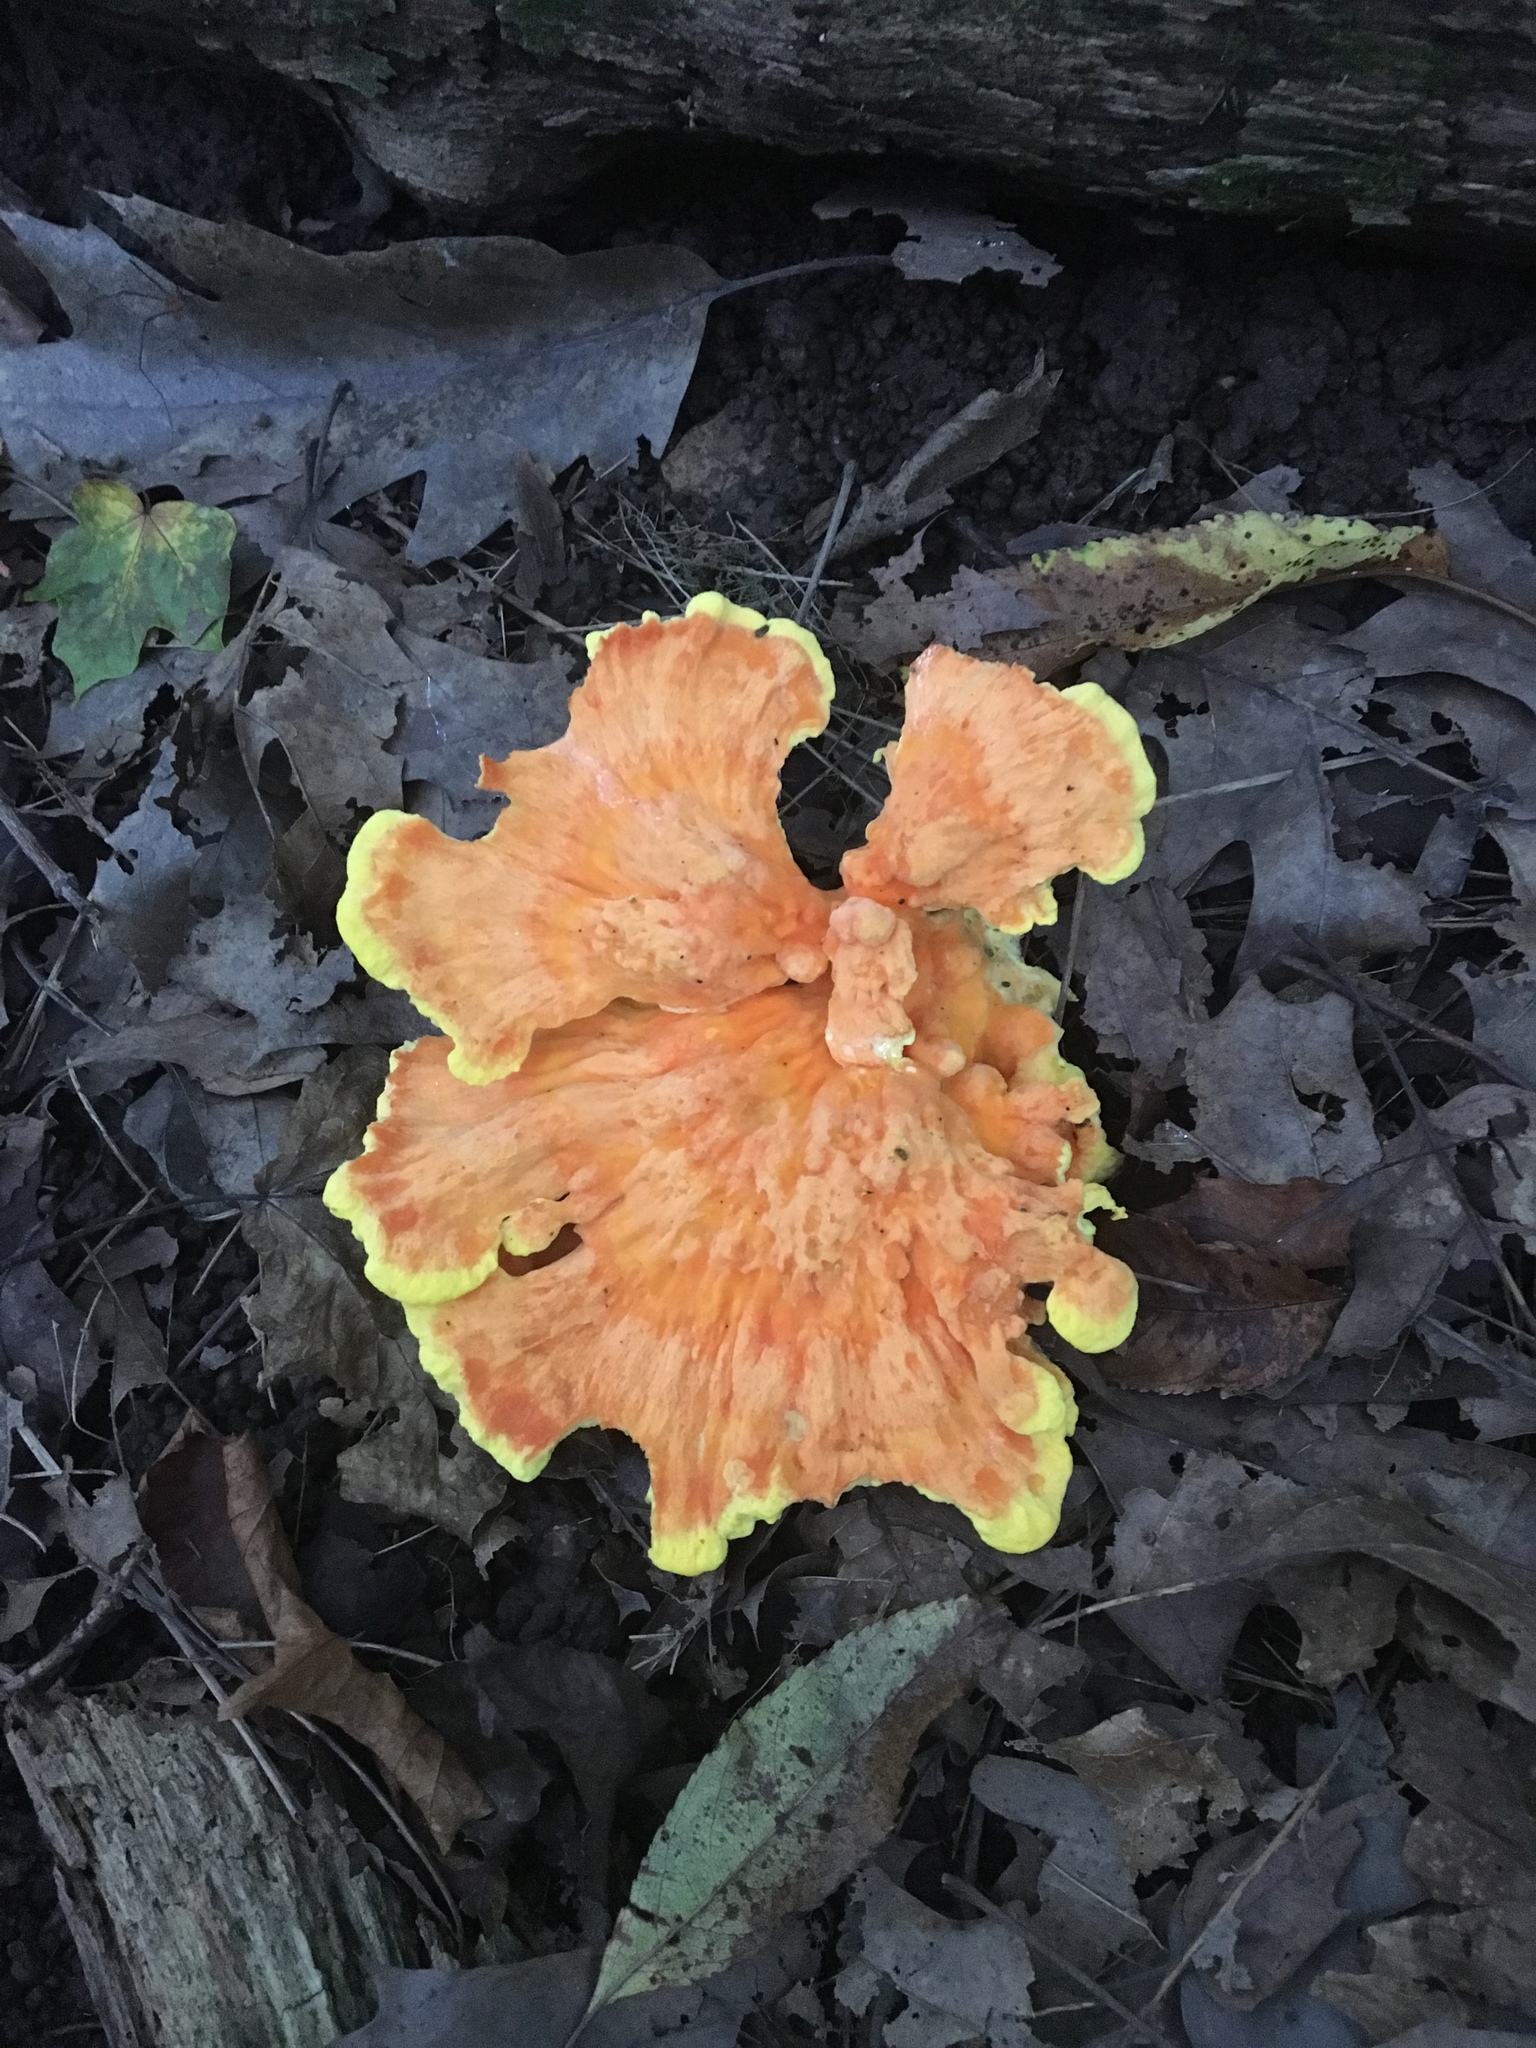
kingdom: Fungi
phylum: Basidiomycota
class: Agaricomycetes
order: Polyporales
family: Laetiporaceae
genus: Laetiporus
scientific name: Laetiporus sulphureus
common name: Chicken of the woods
